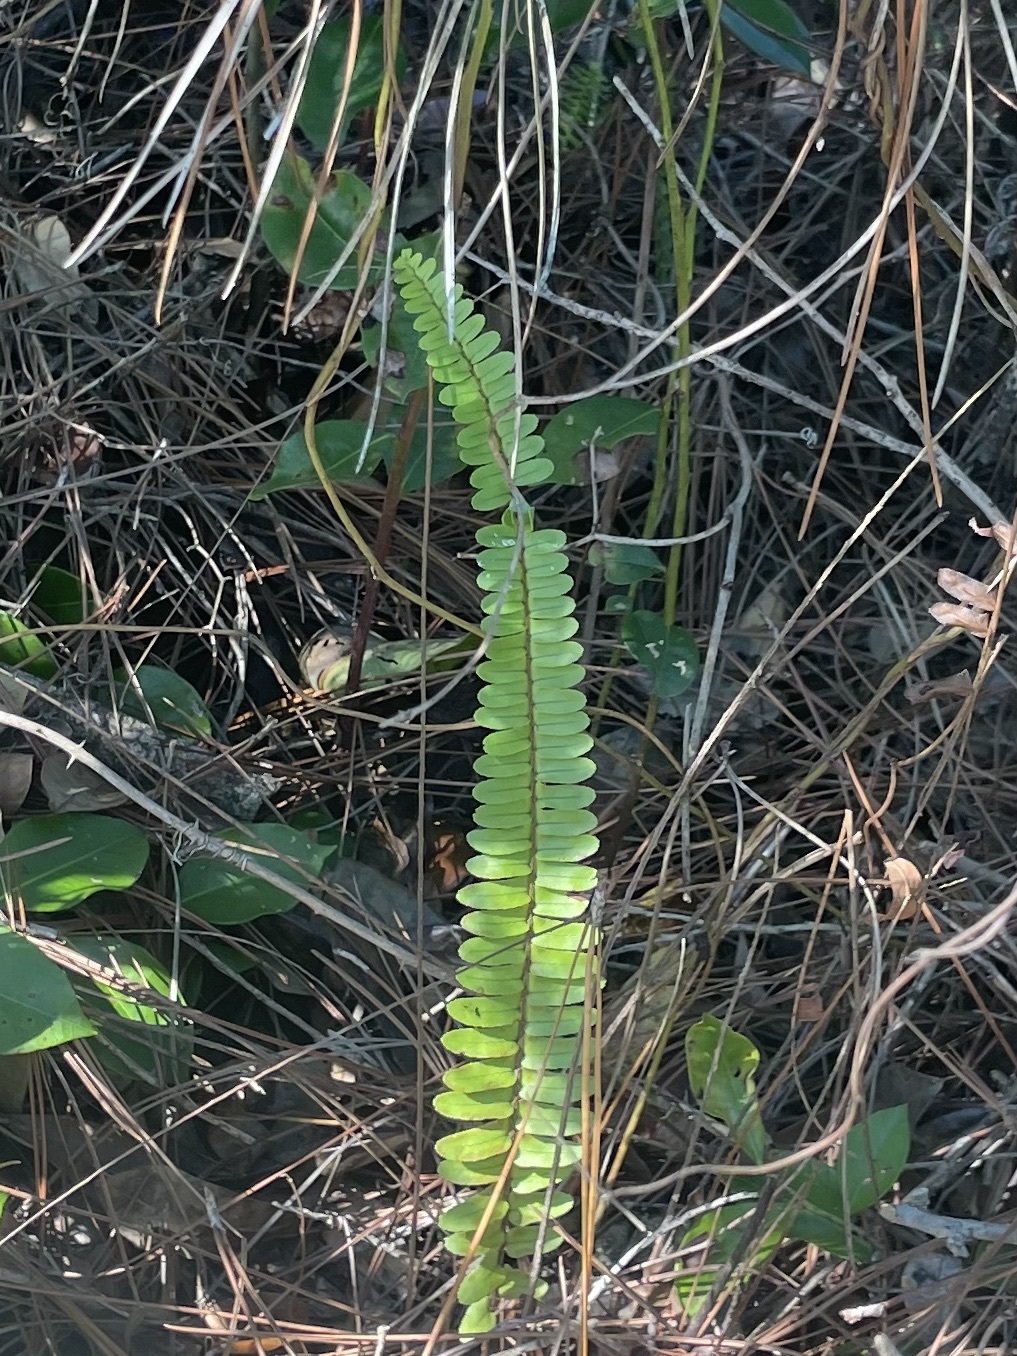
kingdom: Plantae
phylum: Tracheophyta
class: Polypodiopsida
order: Polypodiales
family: Nephrolepidaceae
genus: Nephrolepis
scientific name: Nephrolepis cordifolia
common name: Narrow swordfern
